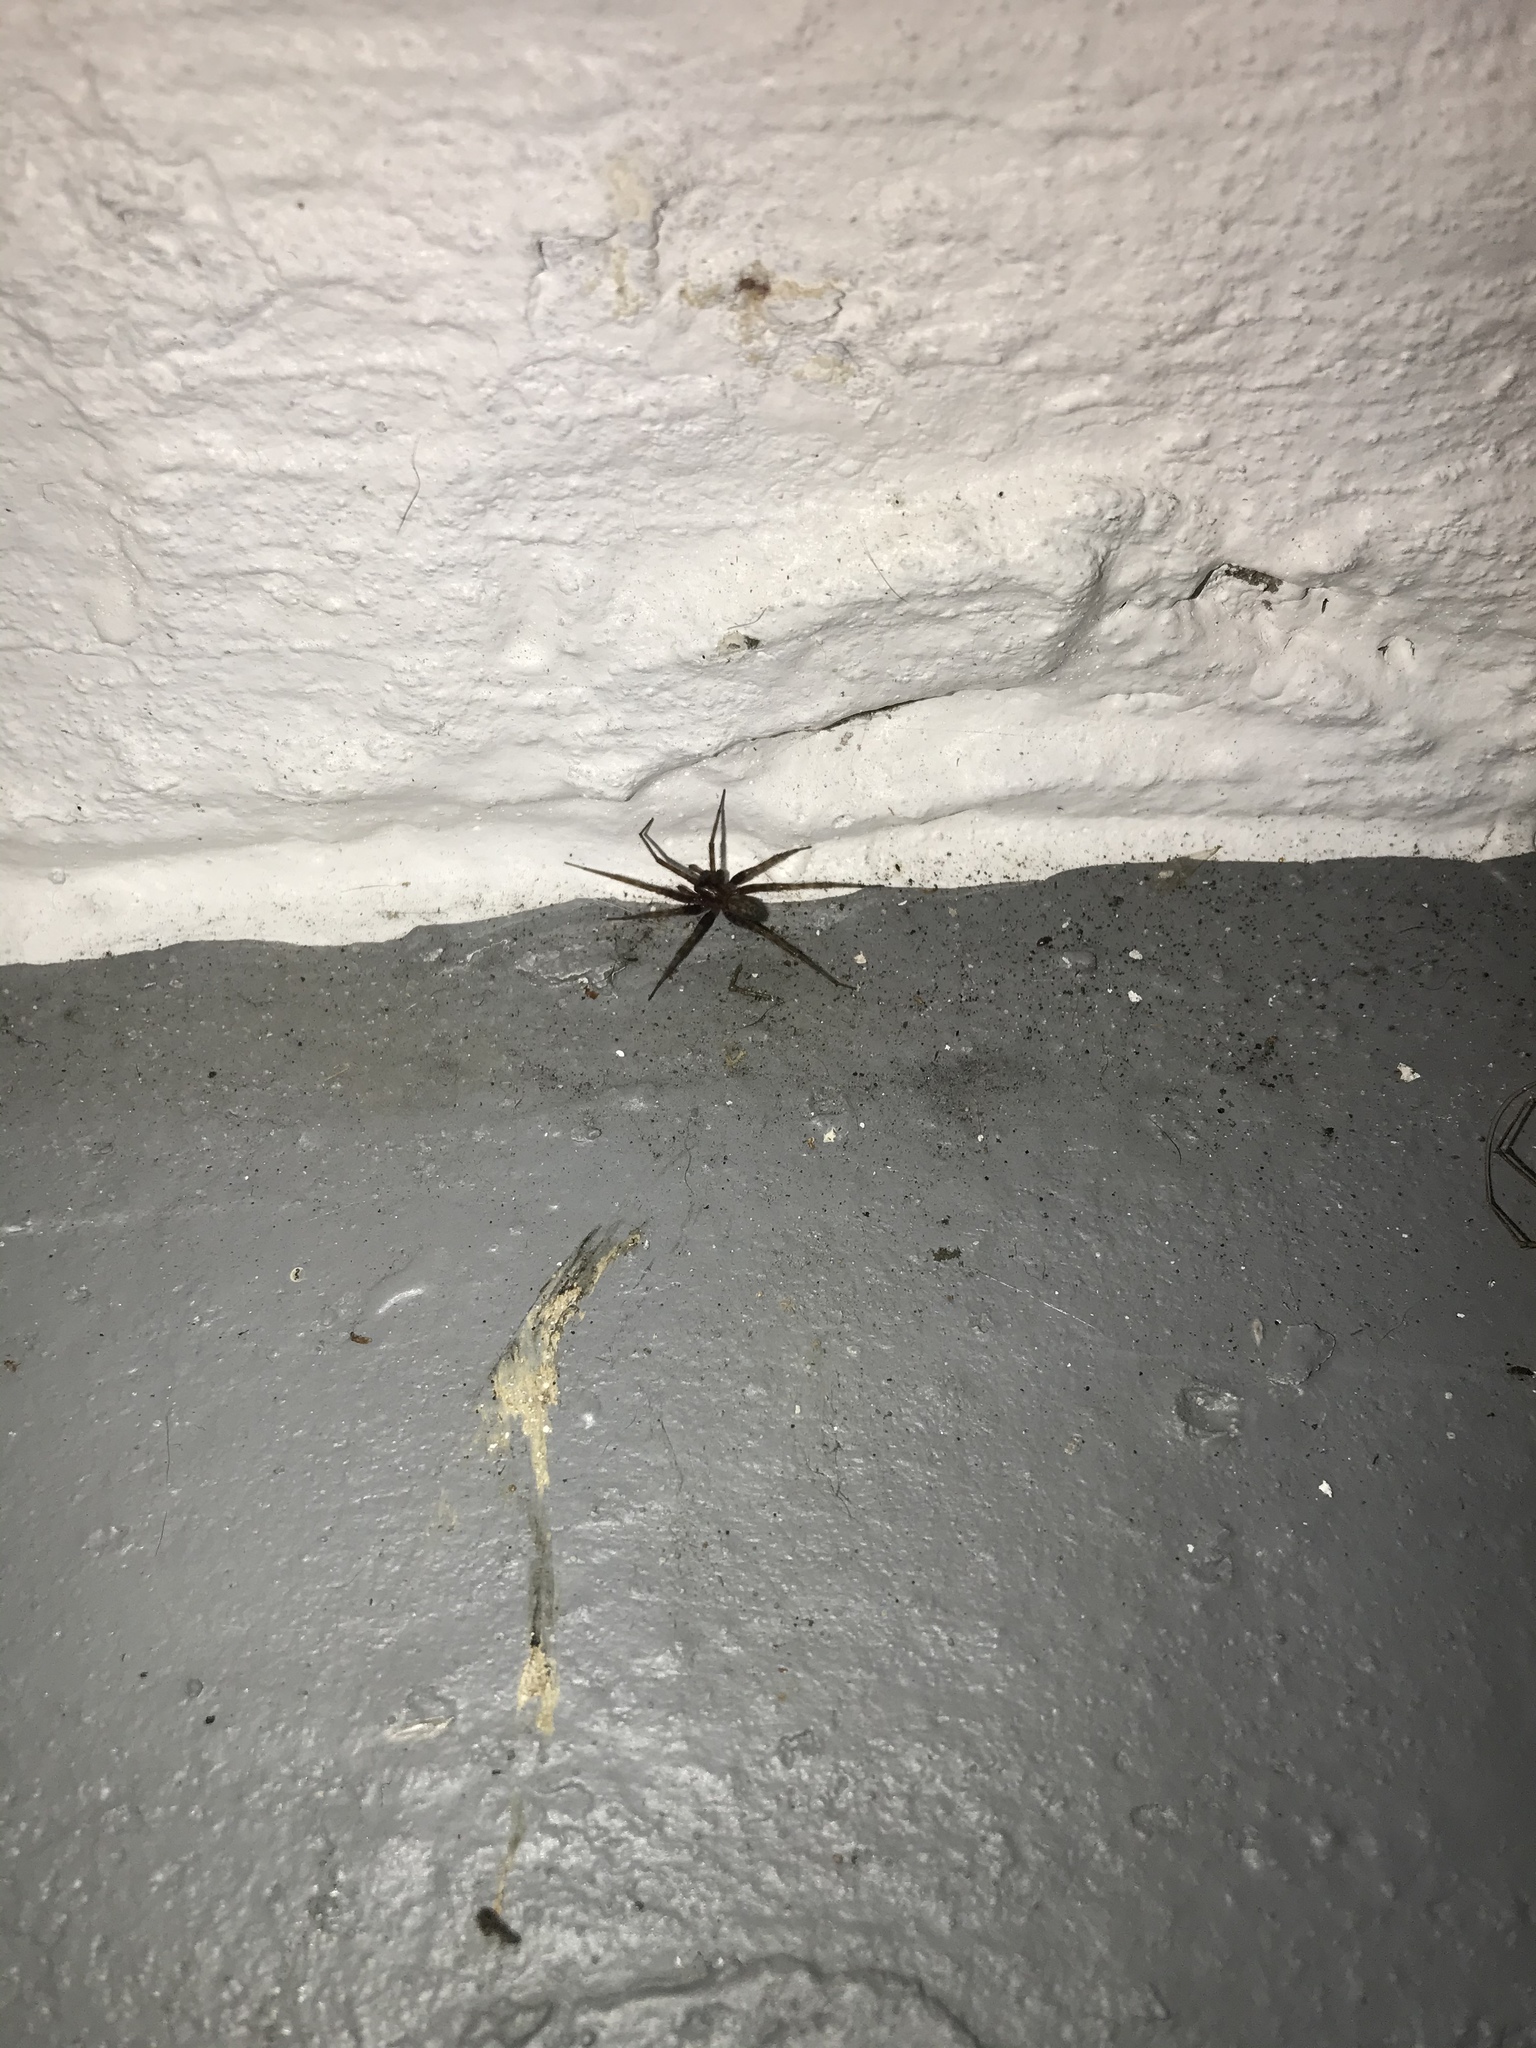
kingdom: Animalia
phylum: Arthropoda
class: Arachnida
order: Araneae
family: Agelenidae
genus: Tegenaria
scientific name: Tegenaria domestica
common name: Barn funnel weaver
